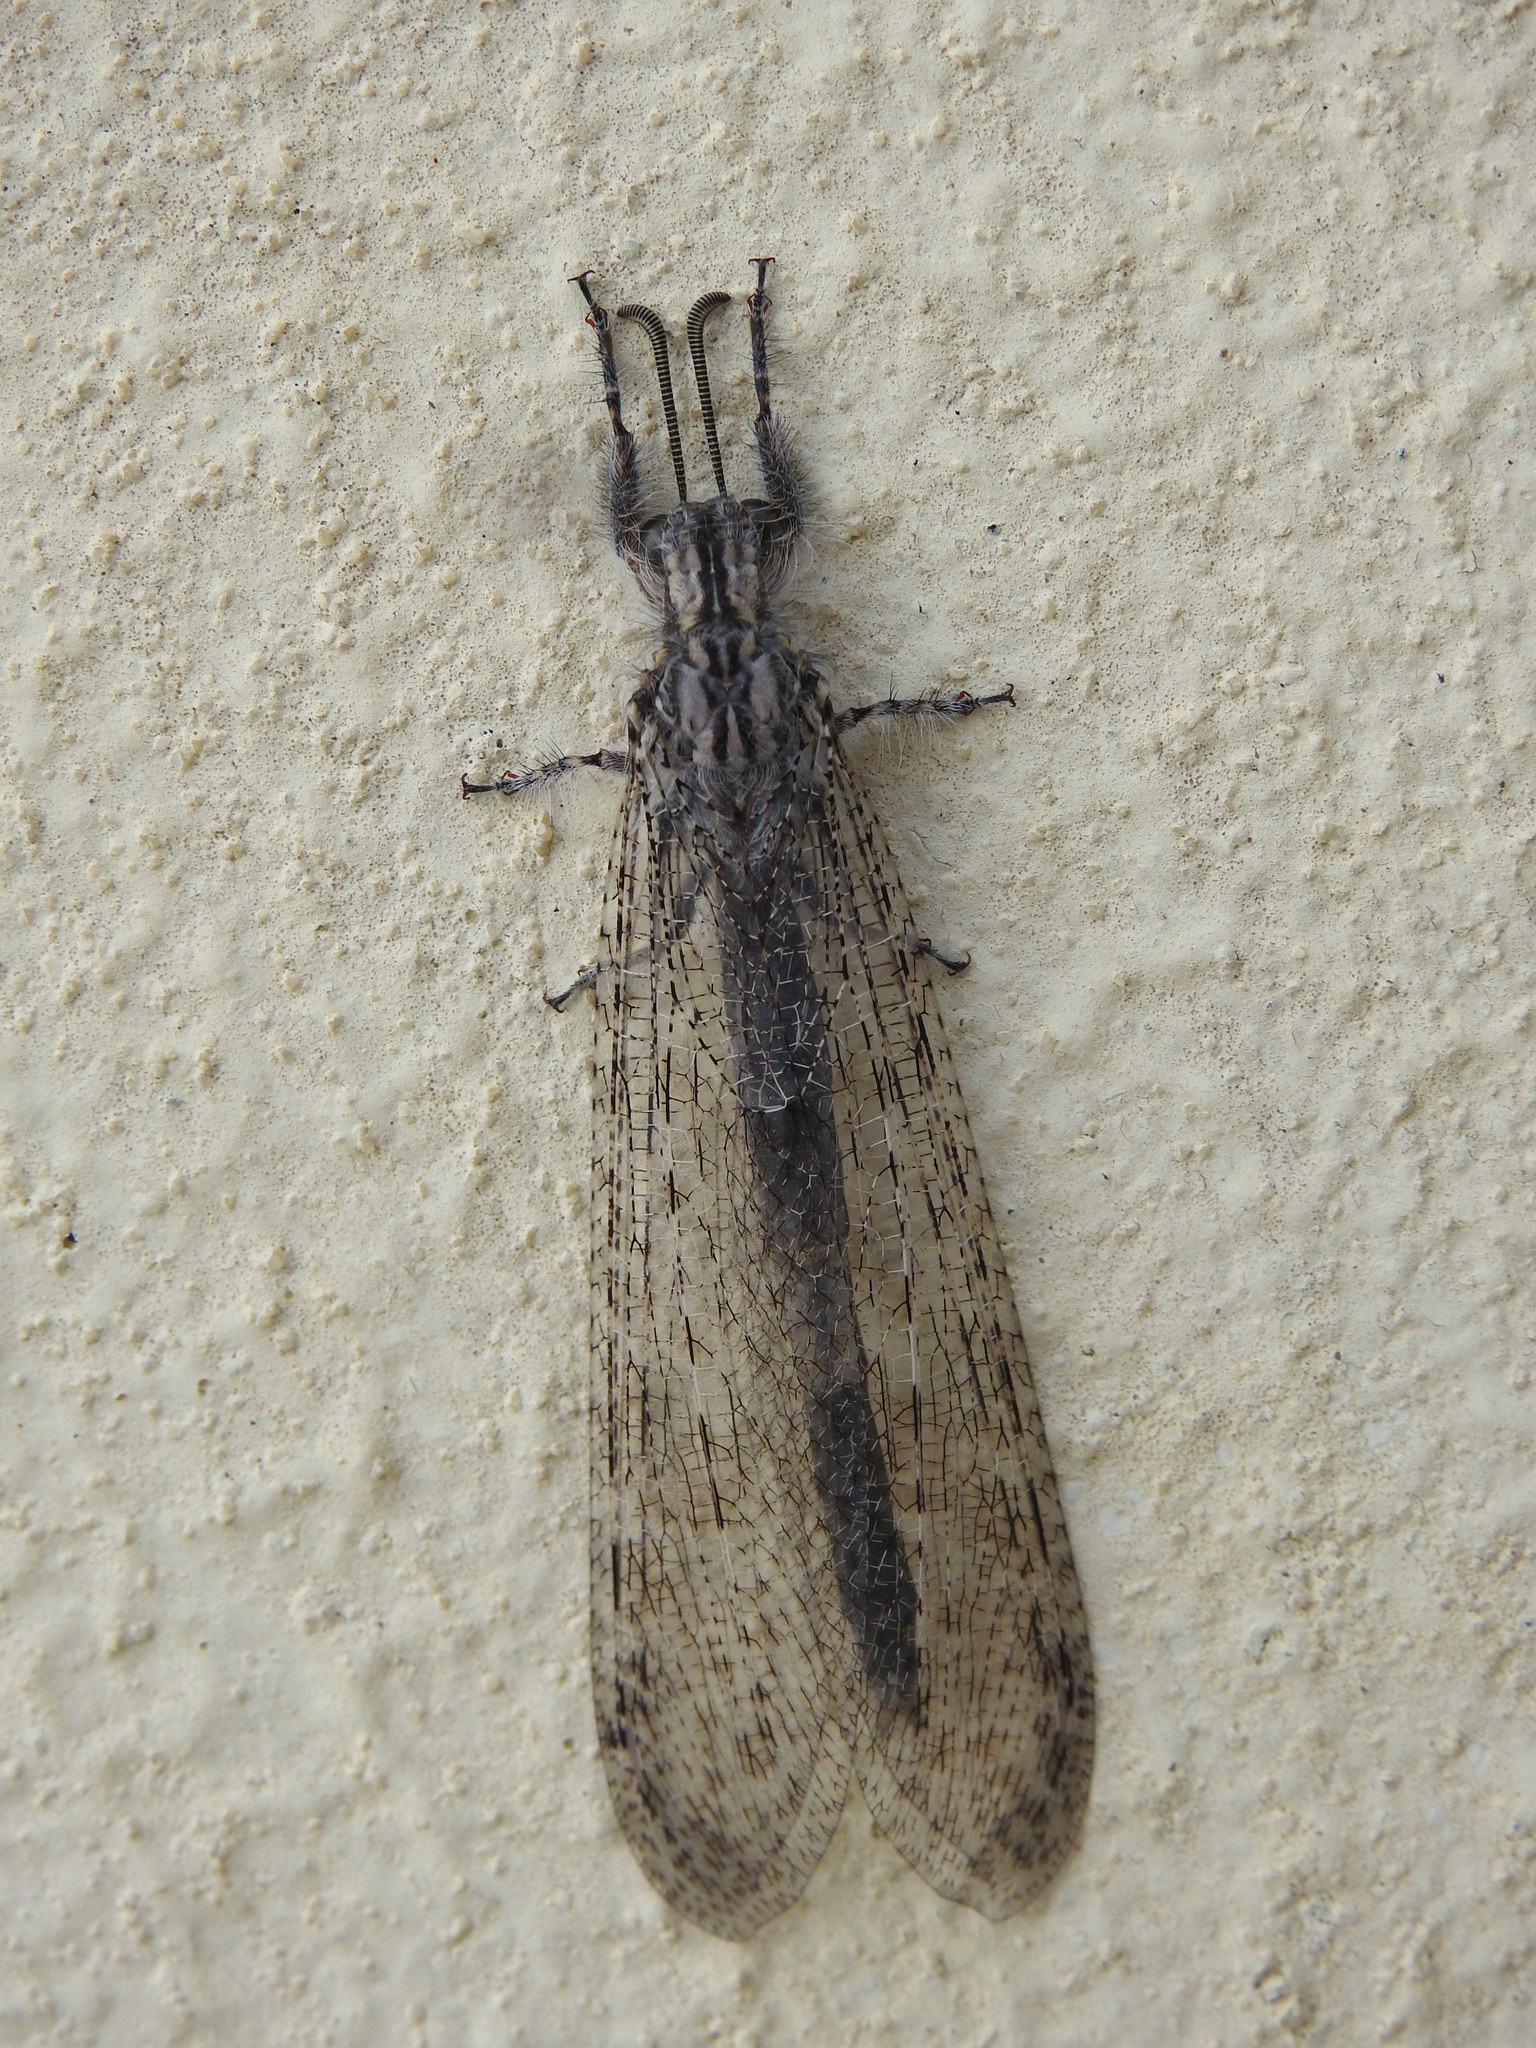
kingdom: Animalia
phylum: Arthropoda
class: Insecta
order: Neuroptera
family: Myrmeleontidae
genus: Synclisis
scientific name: Synclisis baetica
